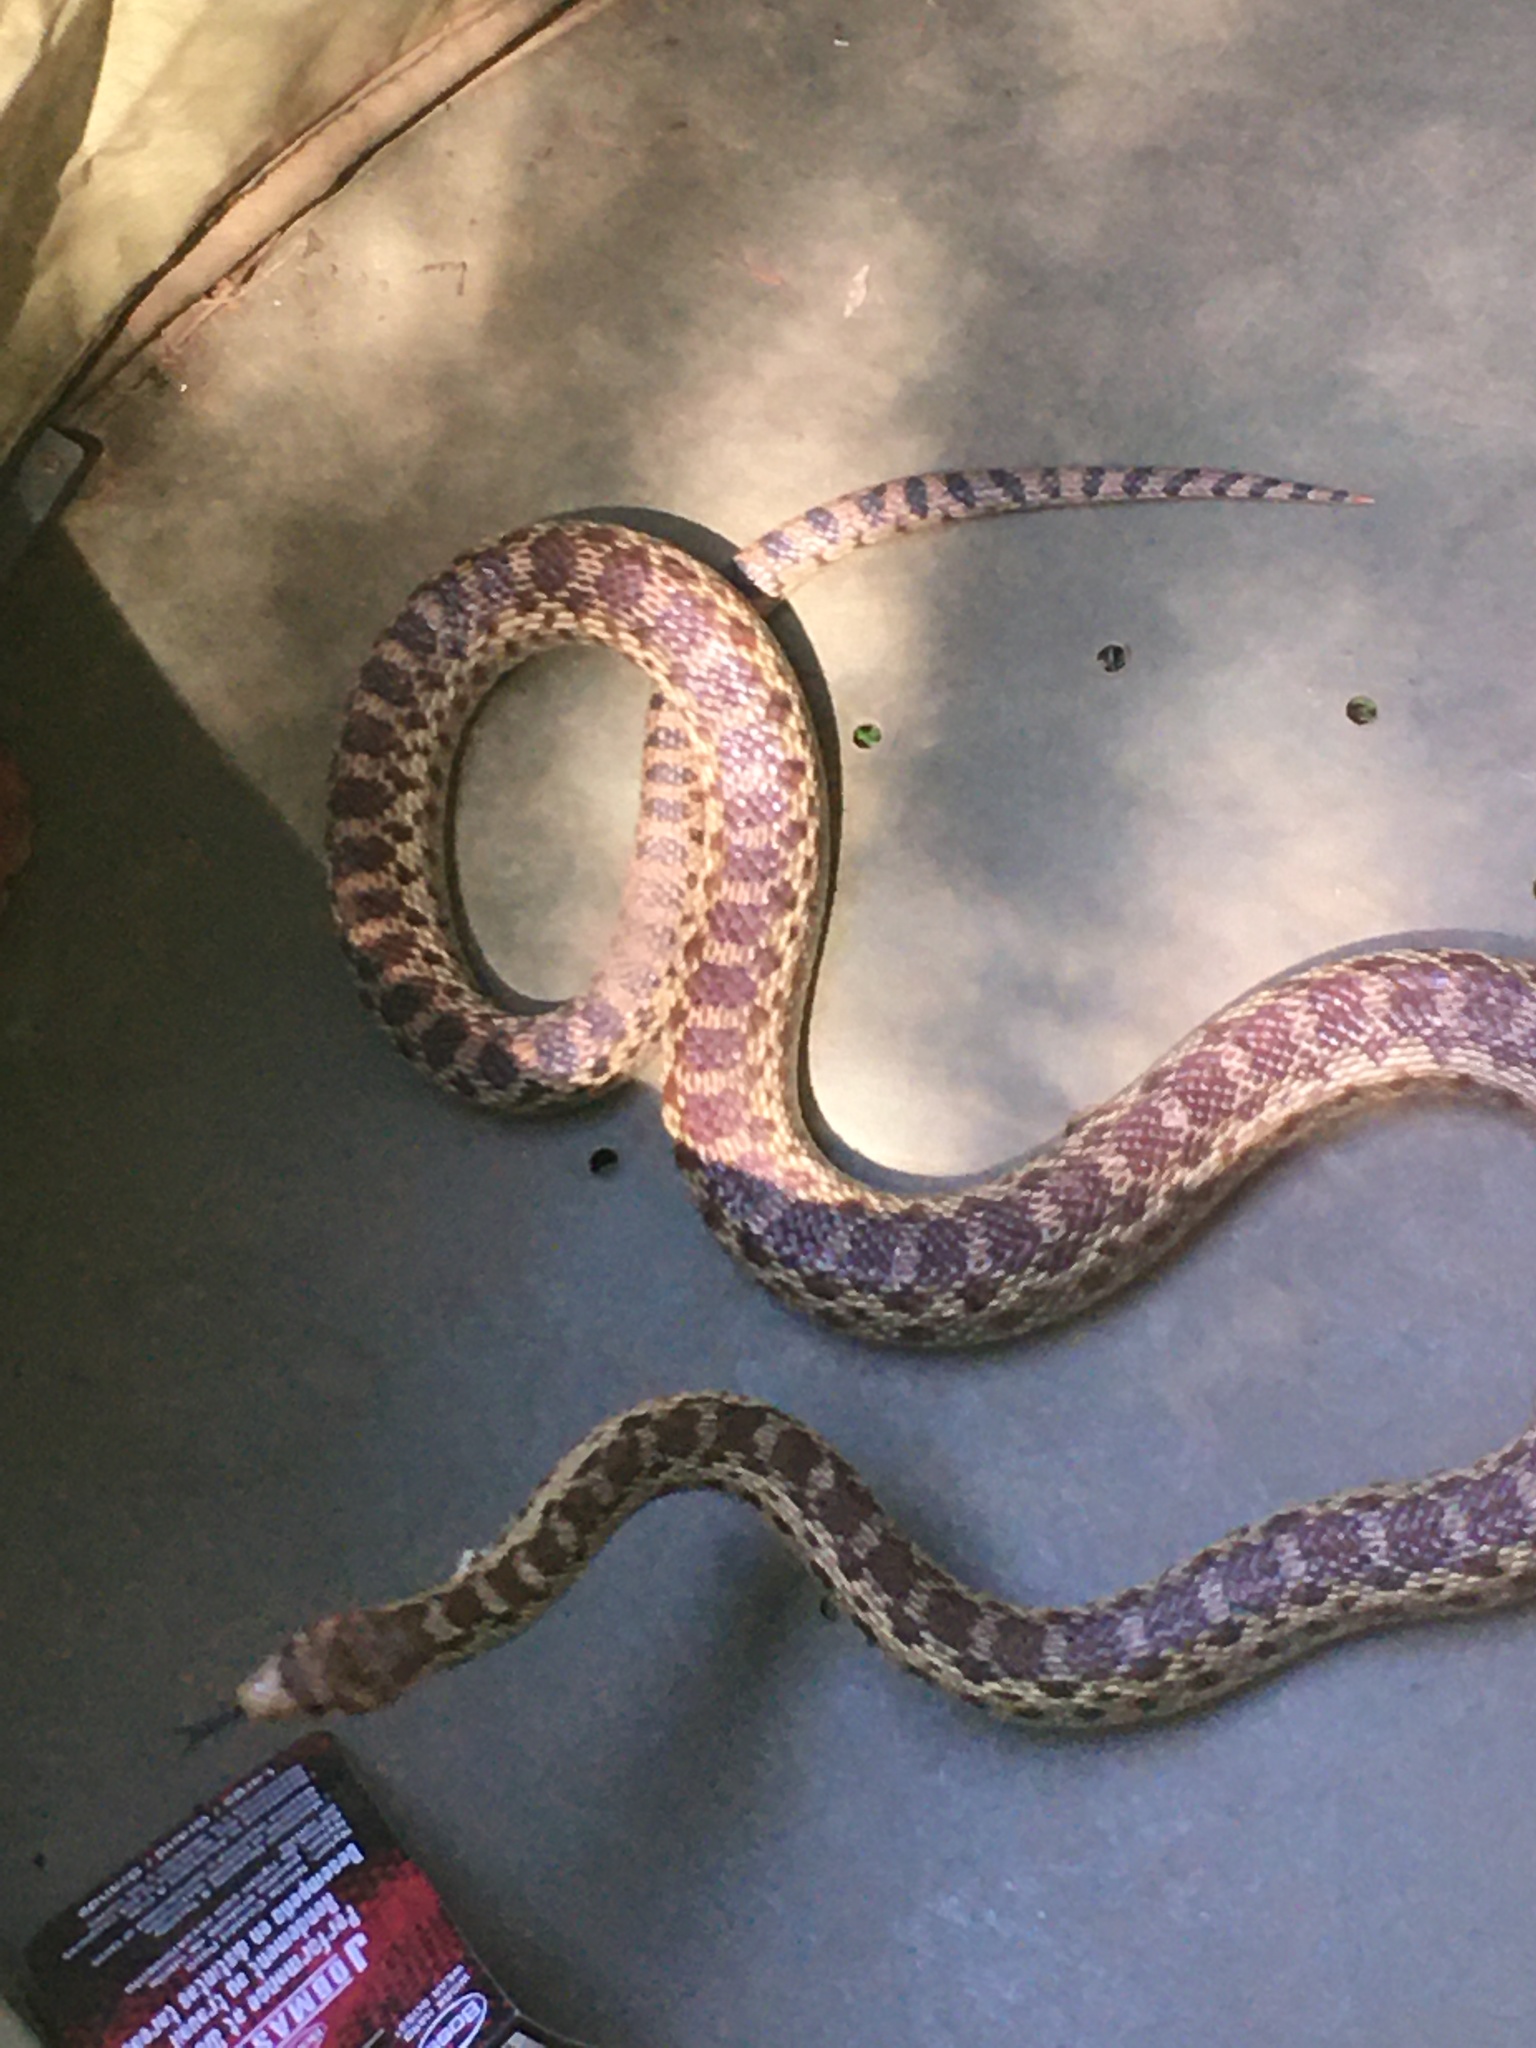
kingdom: Animalia
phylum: Chordata
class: Squamata
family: Colubridae
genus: Pituophis
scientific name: Pituophis catenifer
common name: Gopher snake
